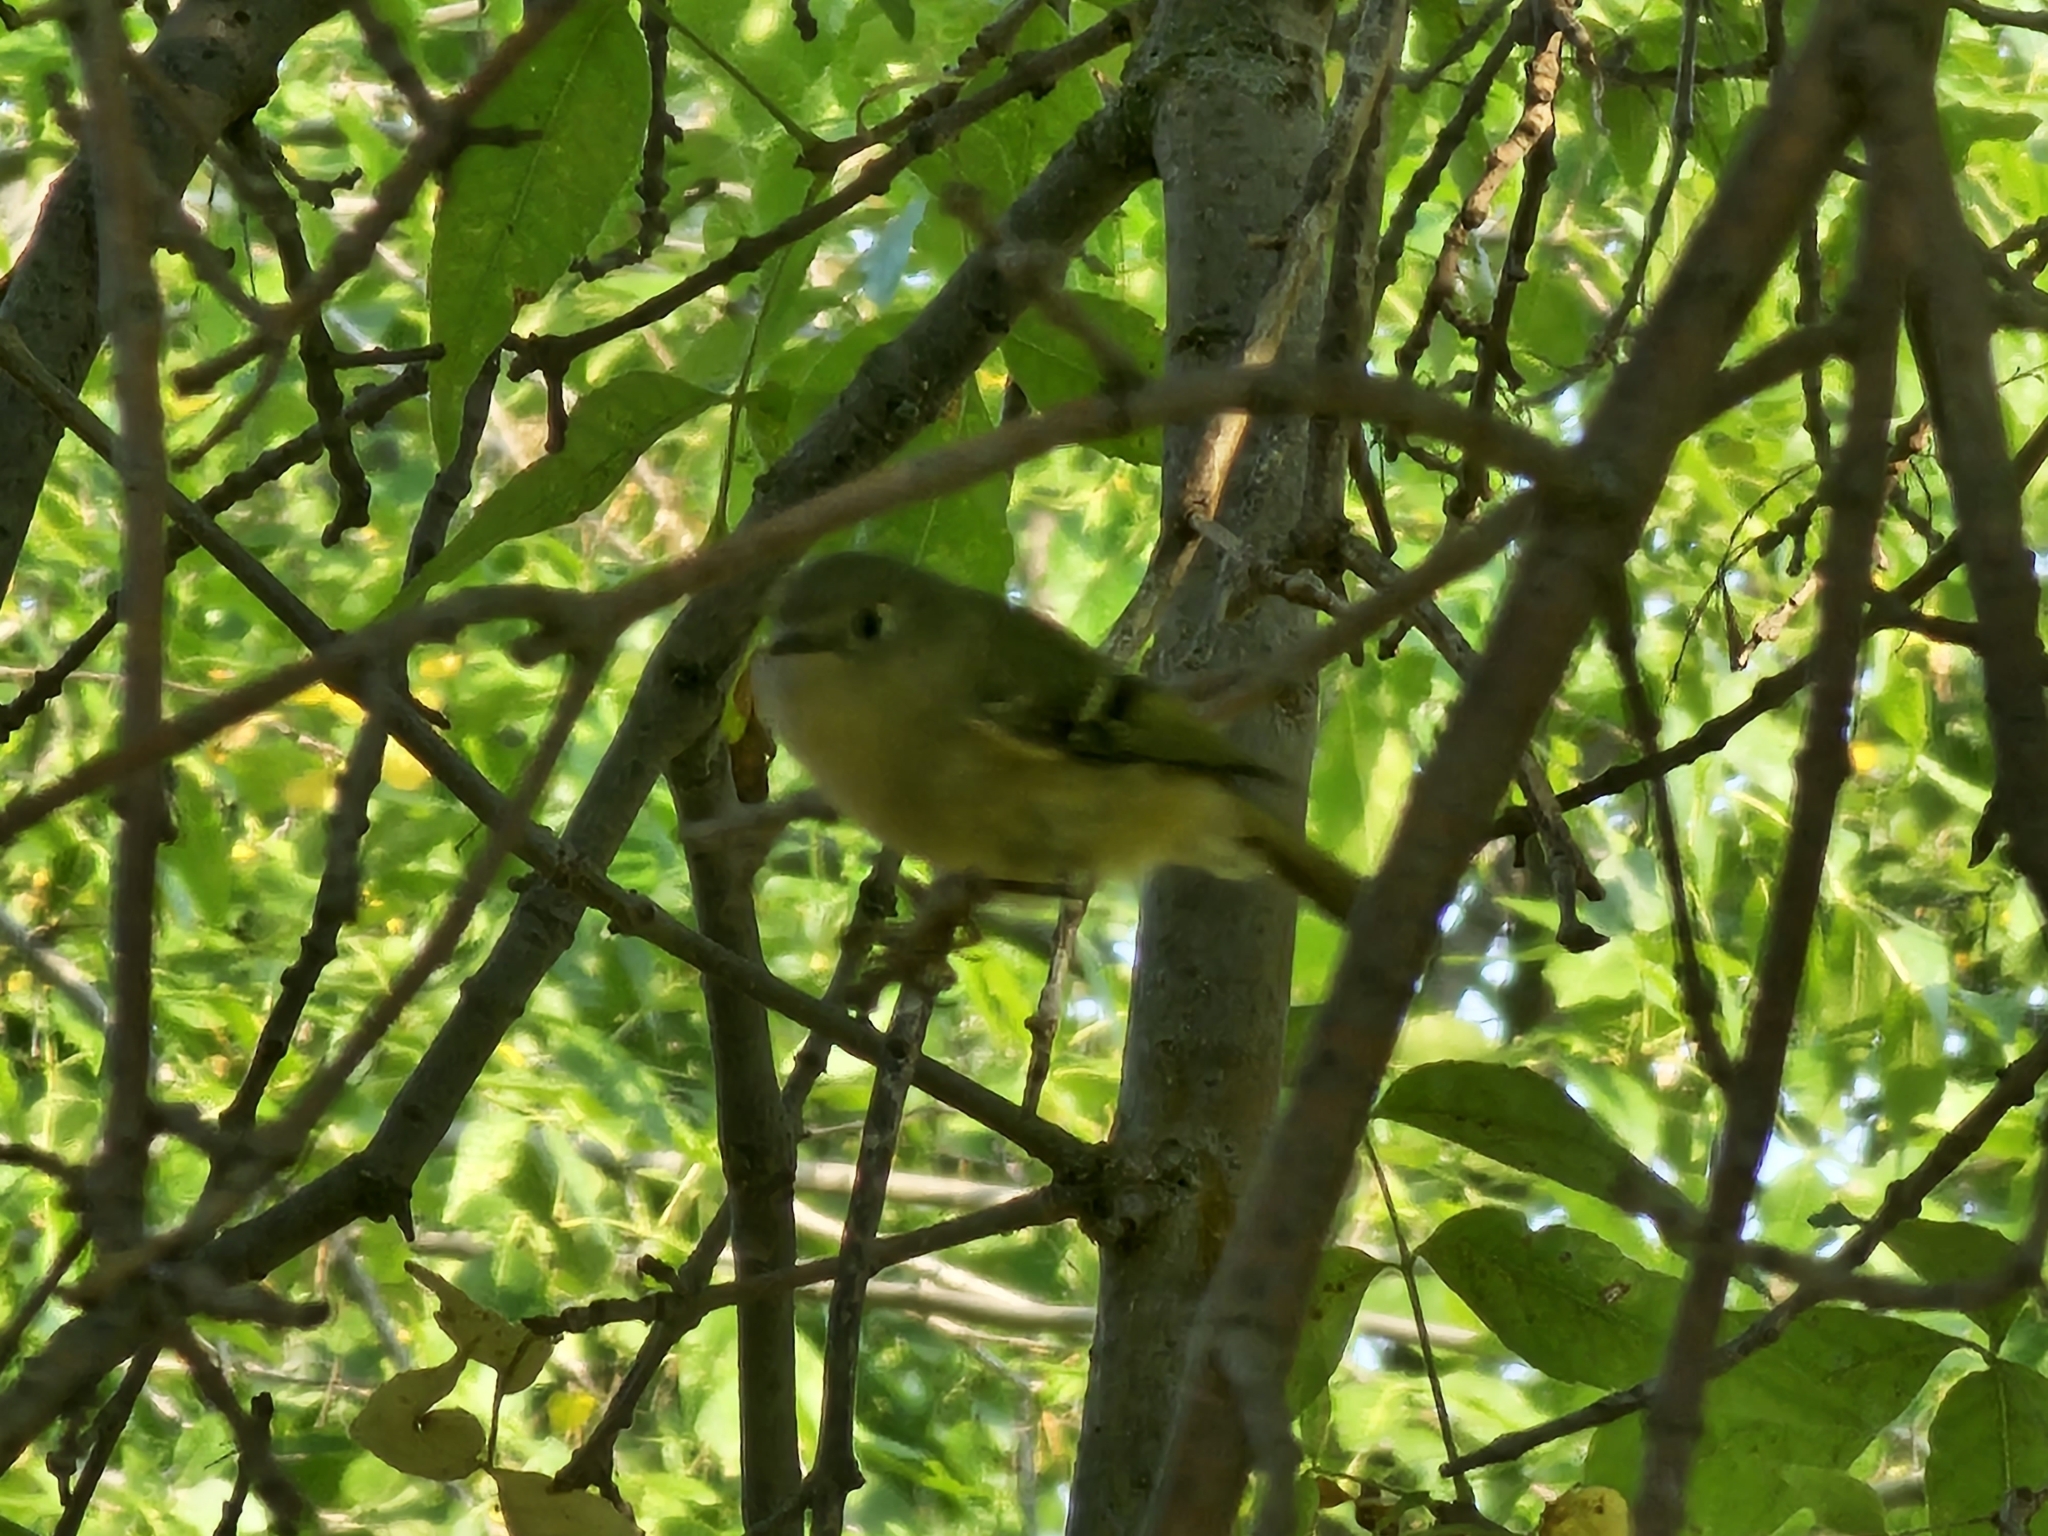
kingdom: Animalia
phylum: Chordata
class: Aves
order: Passeriformes
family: Regulidae
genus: Regulus
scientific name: Regulus calendula
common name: Ruby-crowned kinglet
